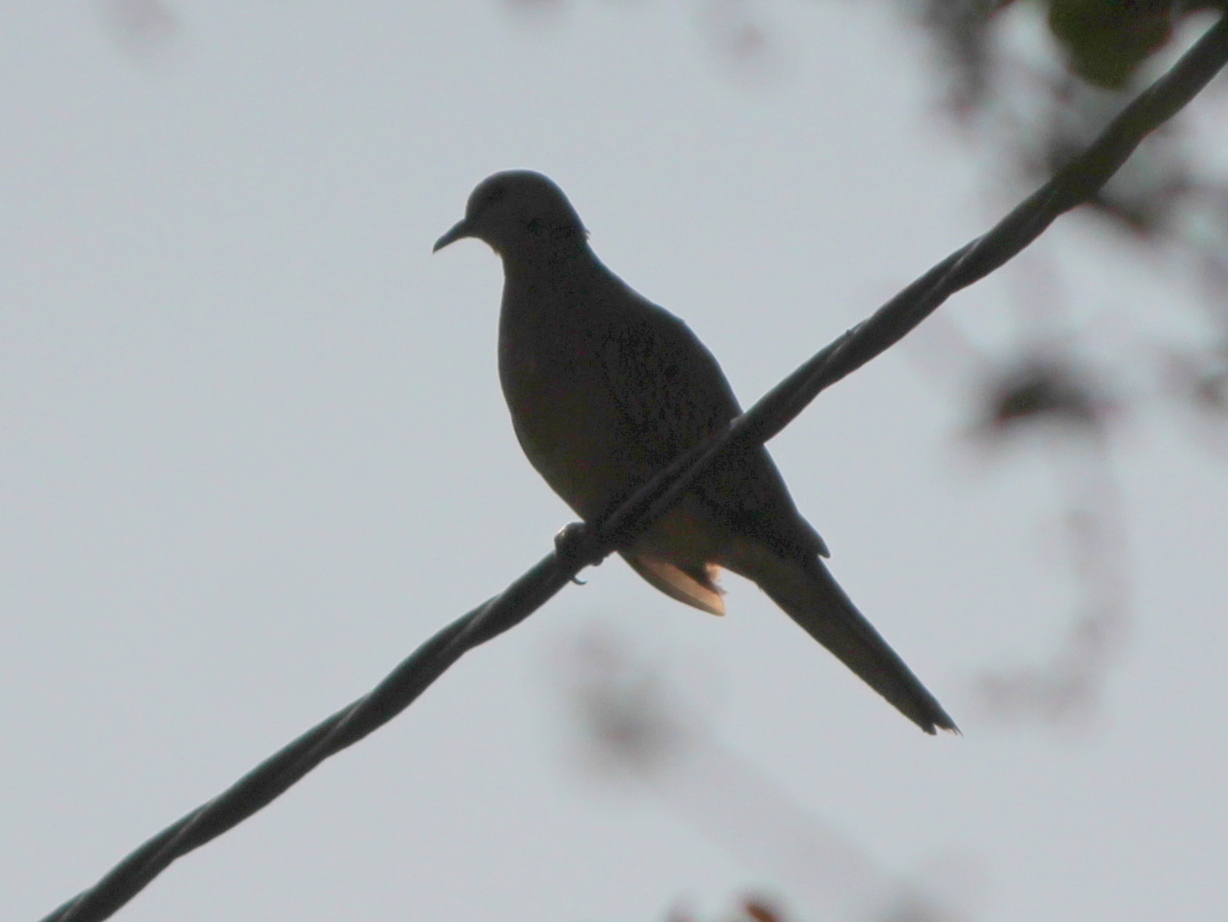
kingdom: Animalia
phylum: Chordata
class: Aves
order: Columbiformes
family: Columbidae
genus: Spilopelia
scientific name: Spilopelia chinensis
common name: Spotted dove
